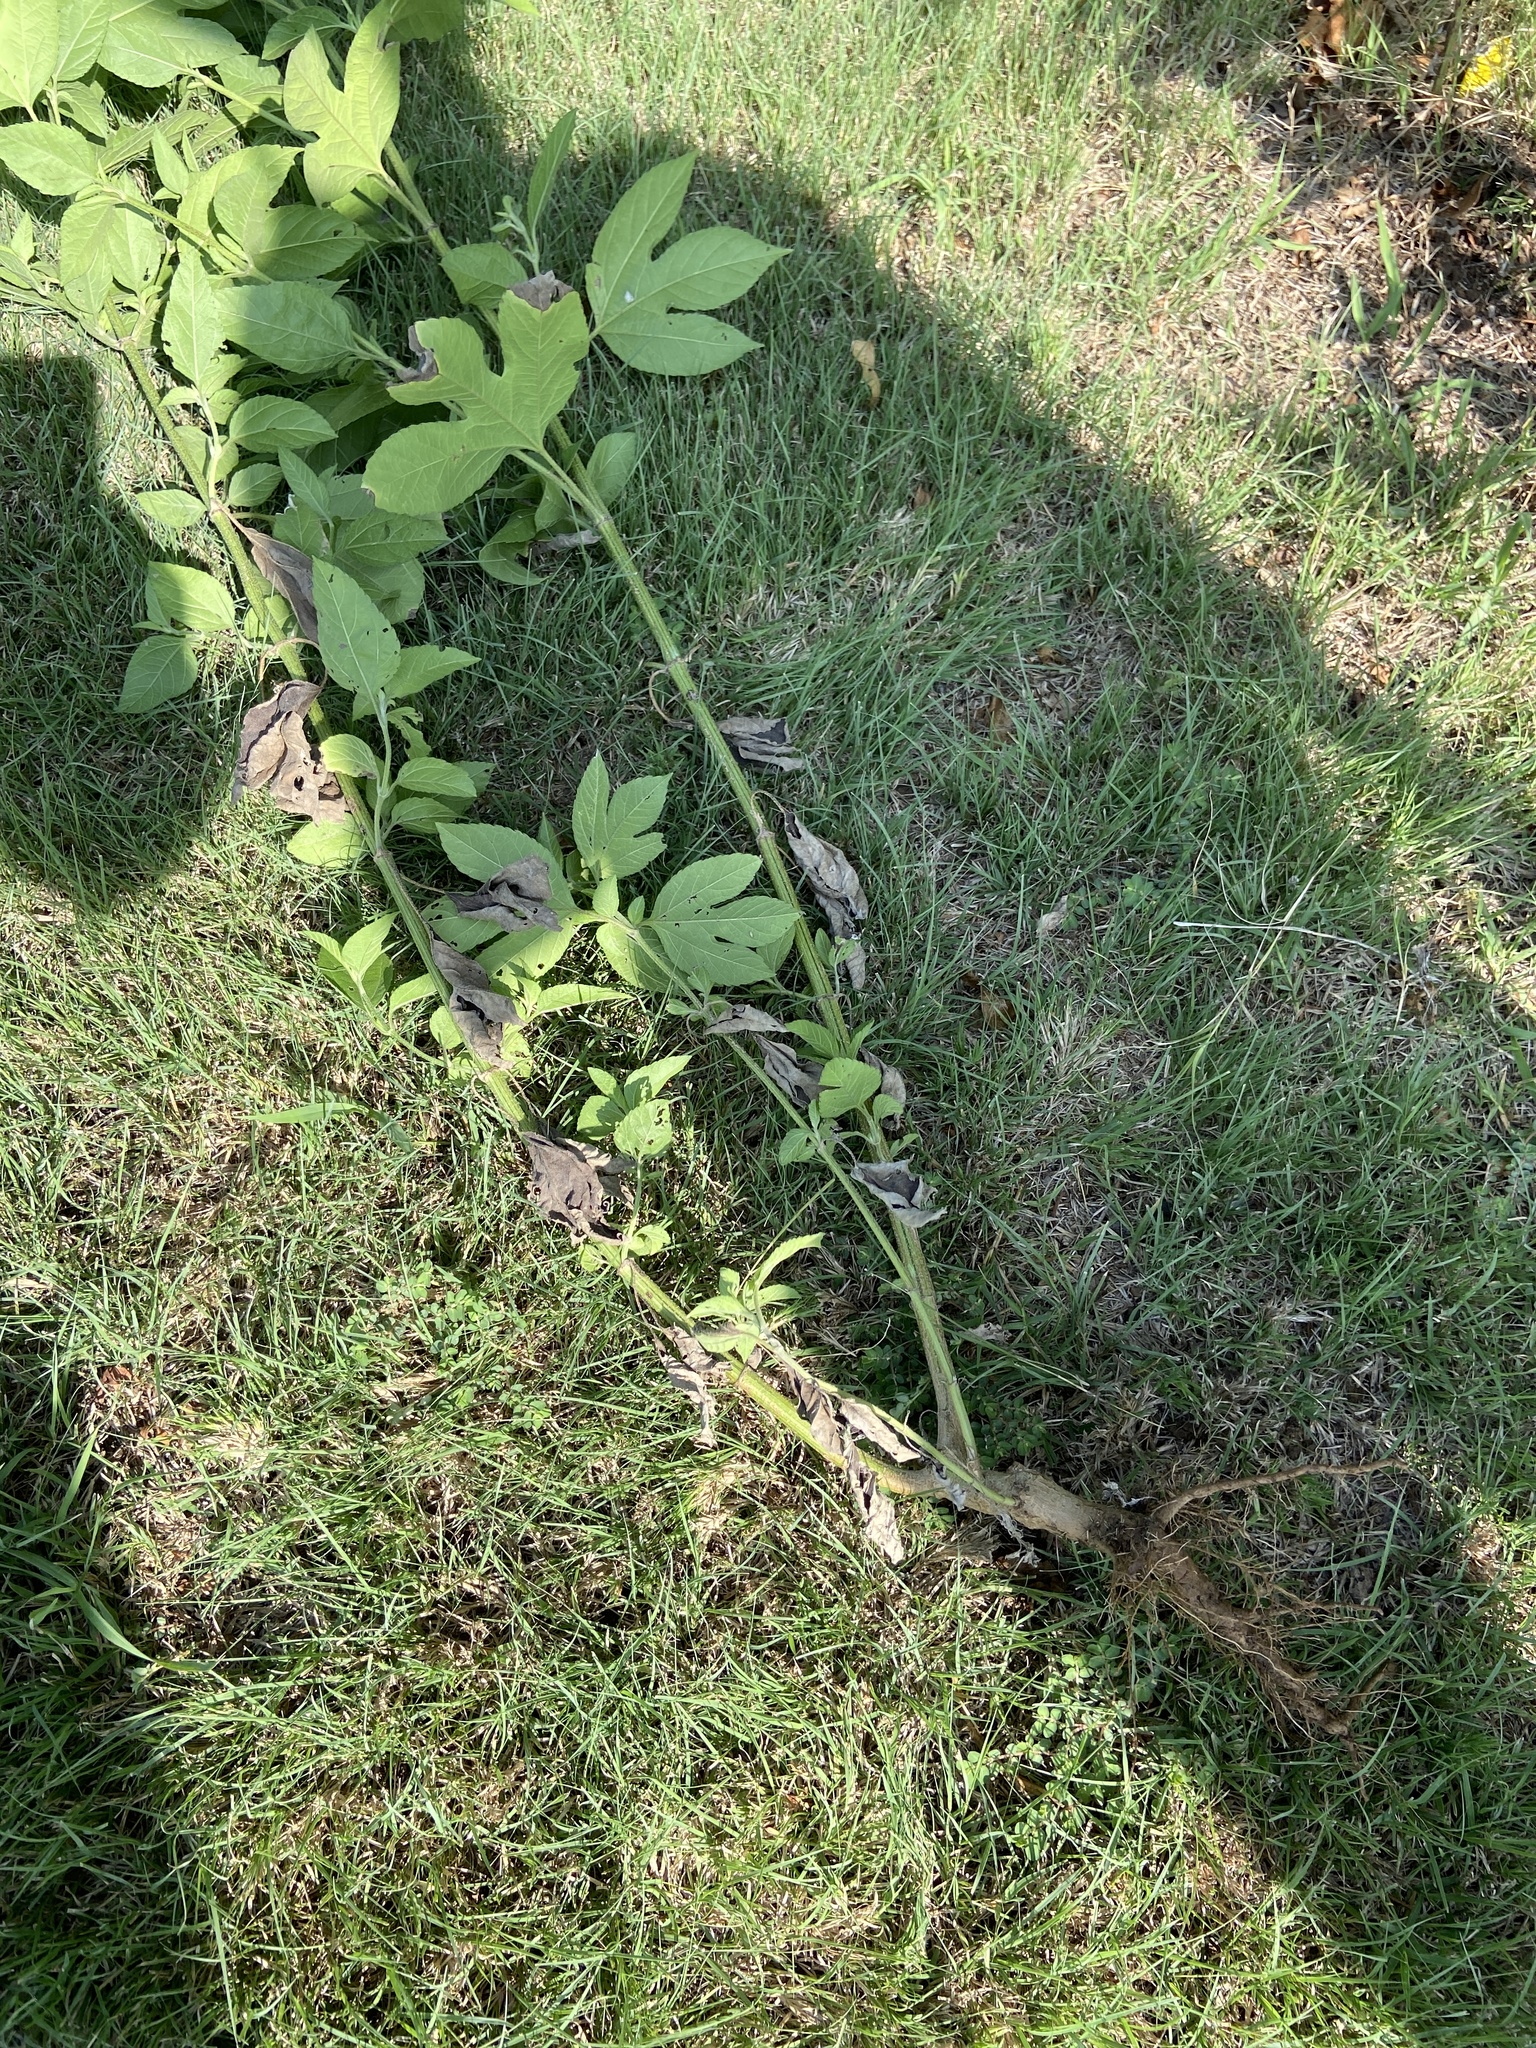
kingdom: Plantae
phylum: Tracheophyta
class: Magnoliopsida
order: Asterales
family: Asteraceae
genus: Ambrosia
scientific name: Ambrosia trifida
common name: Giant ragweed
